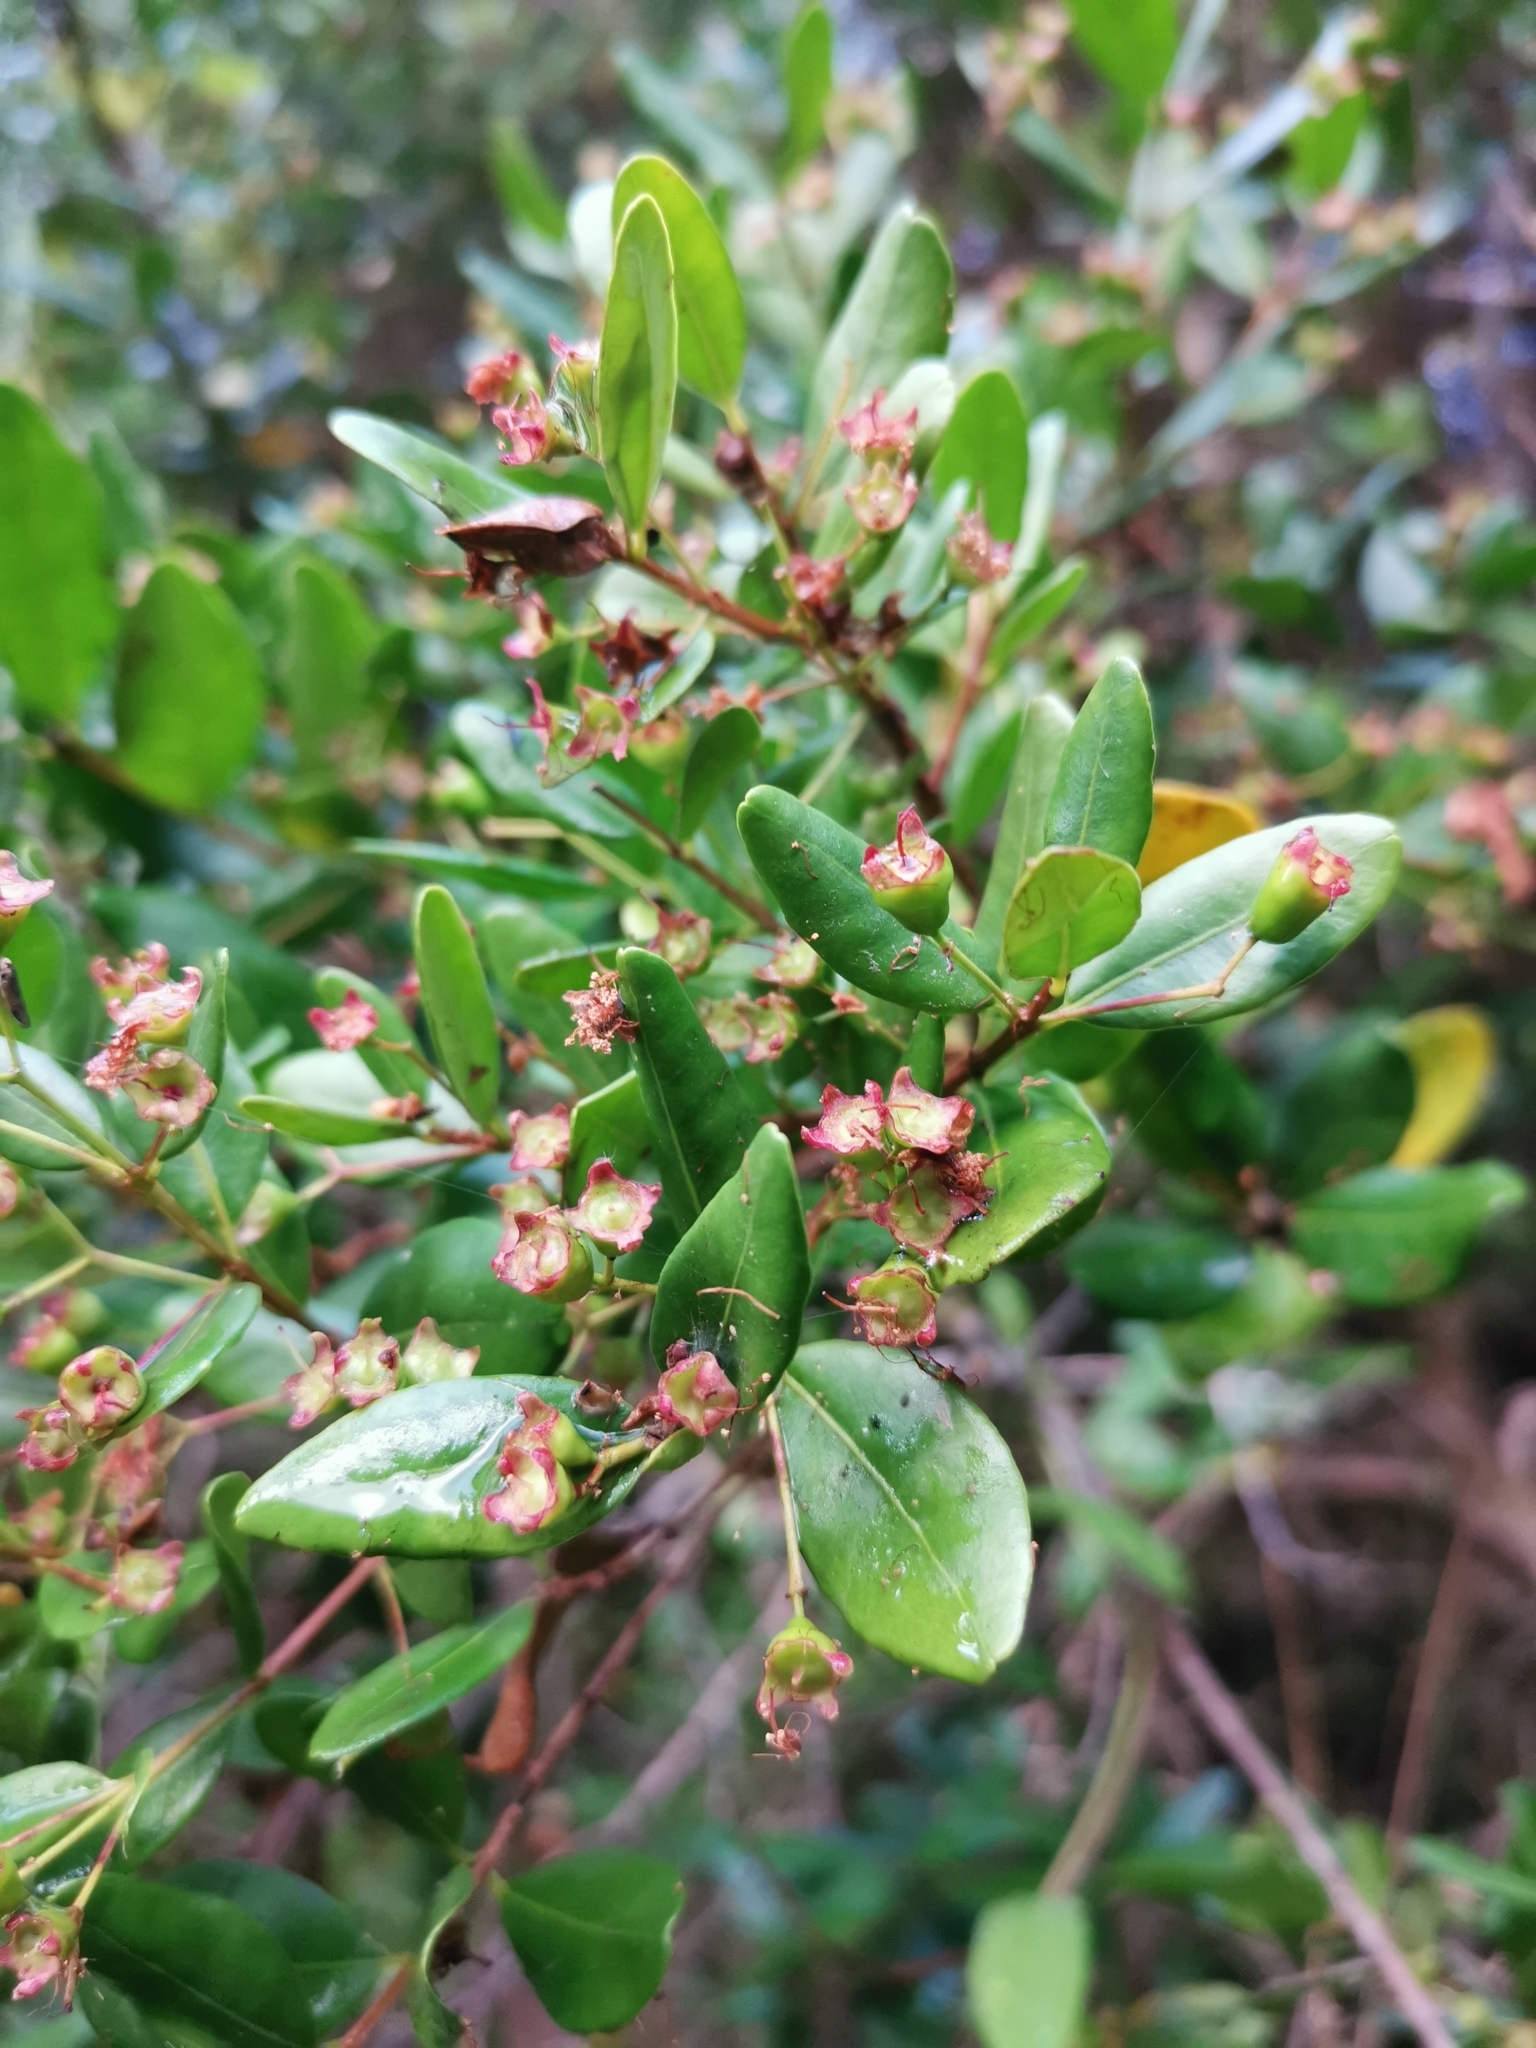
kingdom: Plantae
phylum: Tracheophyta
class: Magnoliopsida
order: Myrtales
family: Myrtaceae
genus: Blepharocalyx
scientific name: Blepharocalyx cruckshanksii
